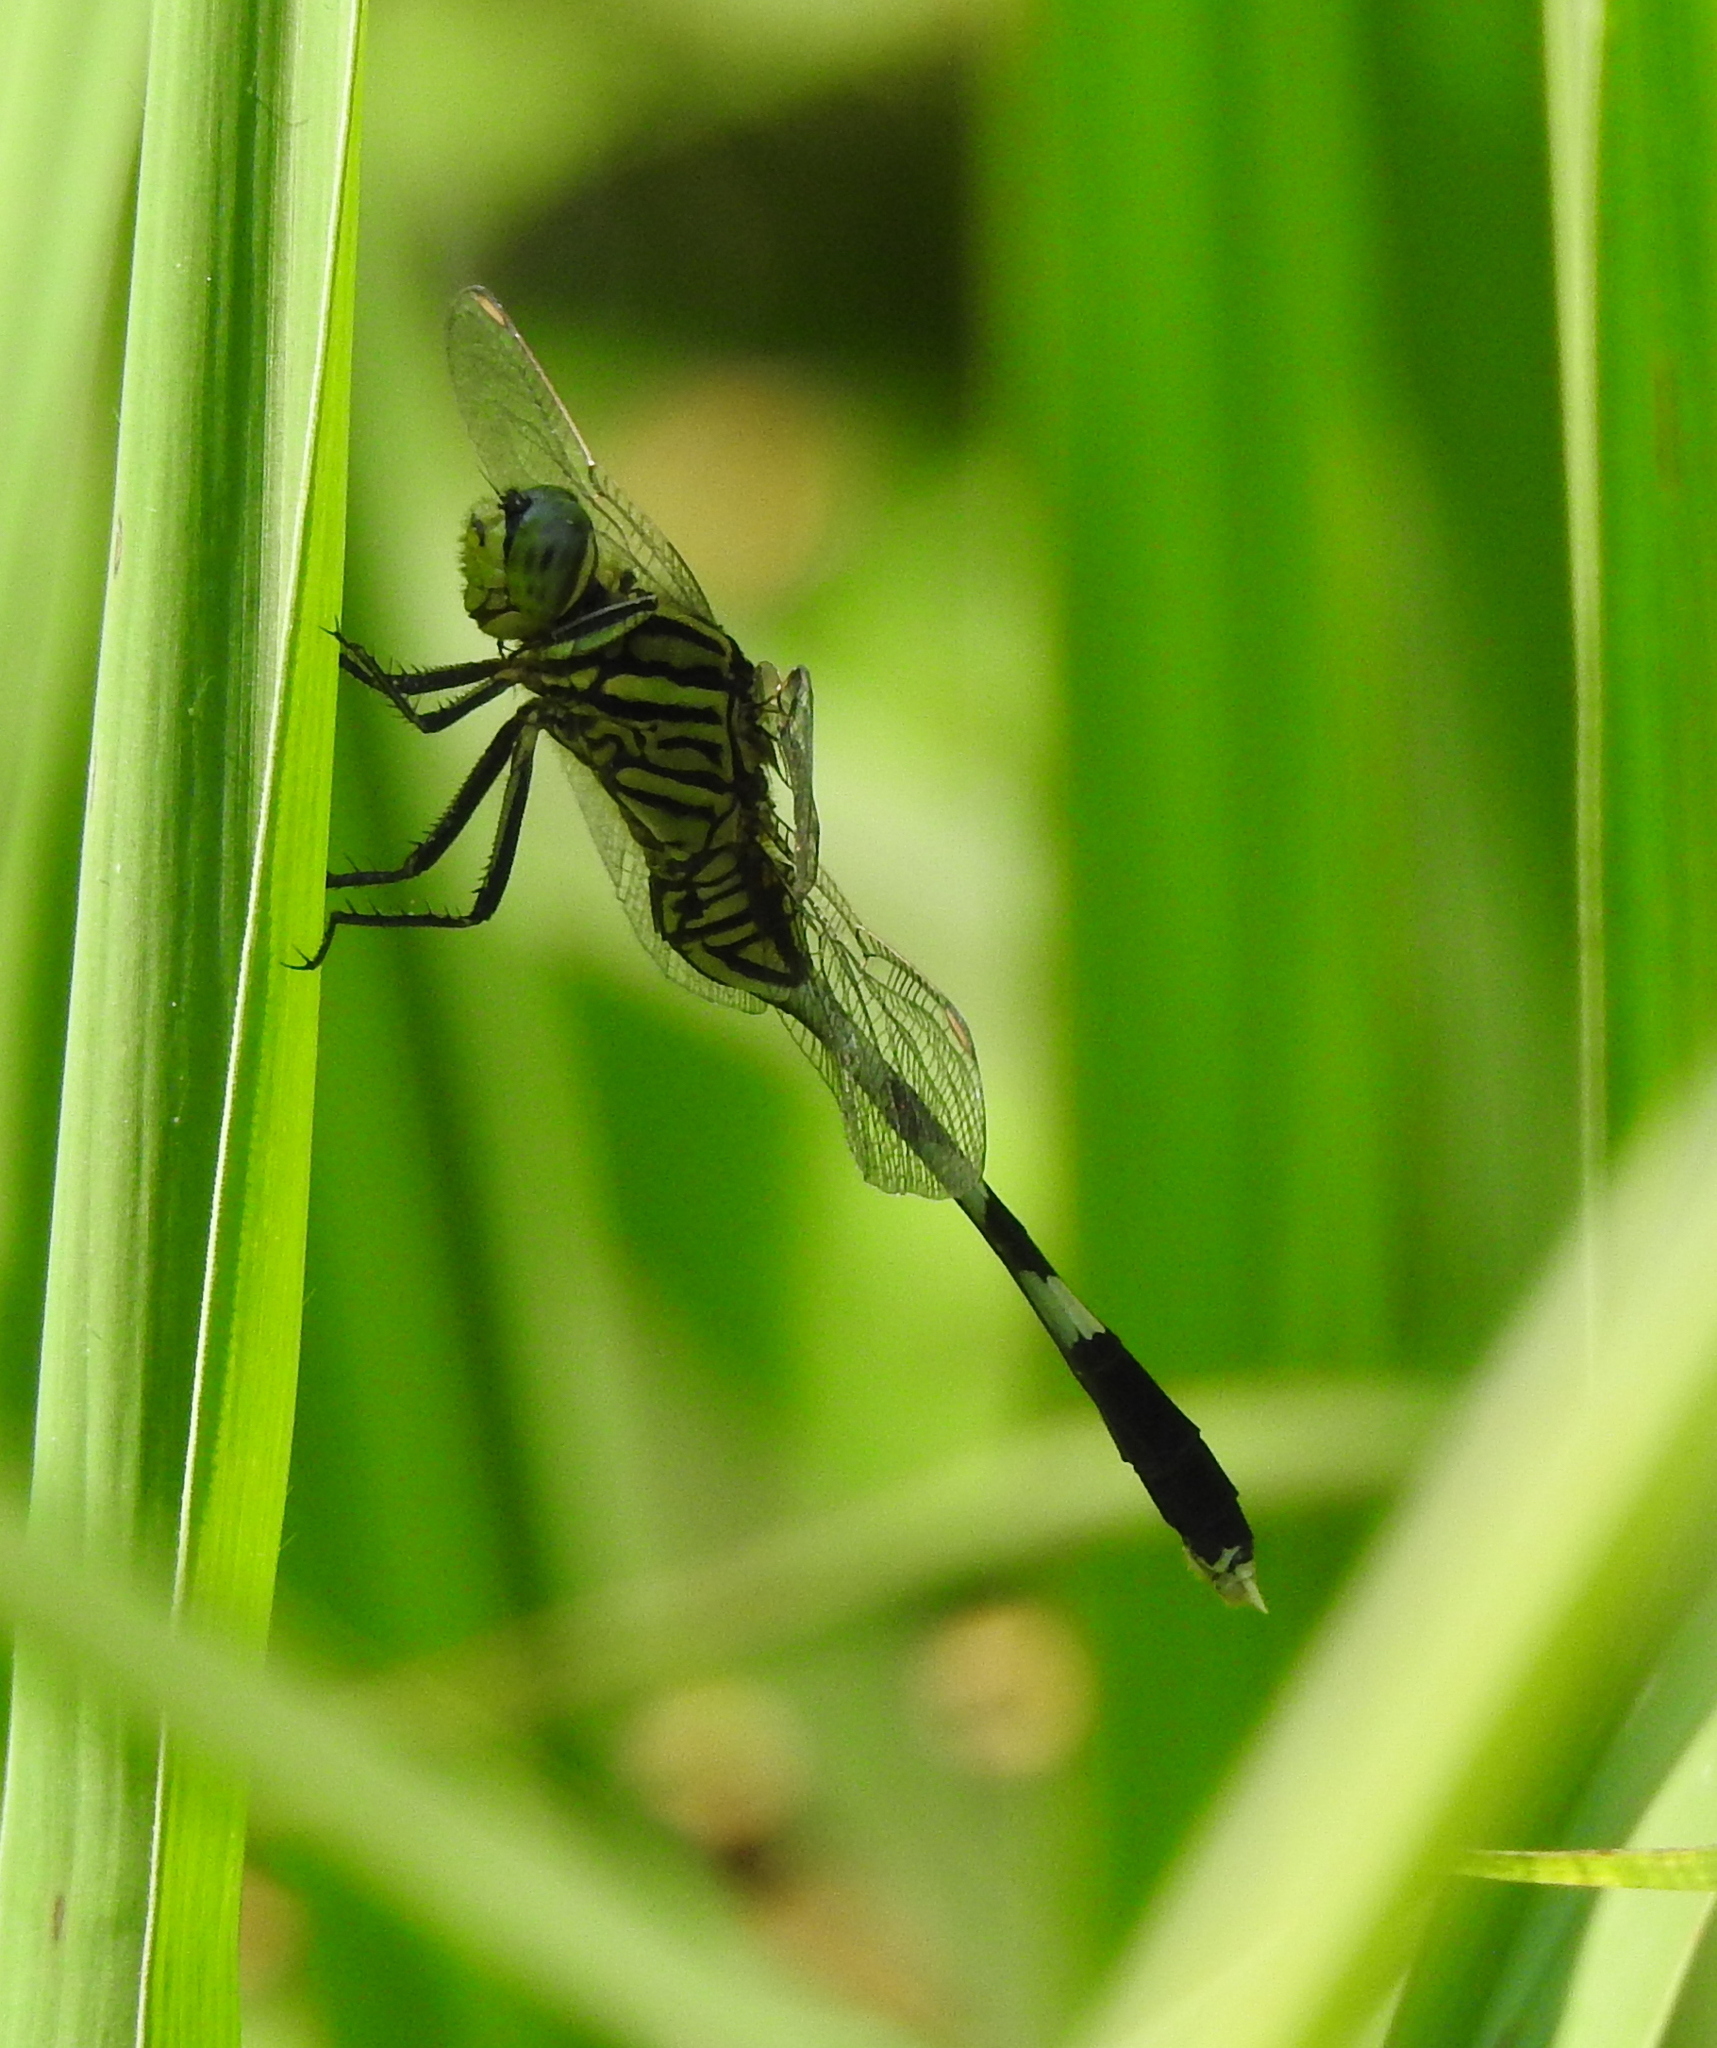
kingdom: Animalia
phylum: Arthropoda
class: Insecta
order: Odonata
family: Libellulidae
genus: Orthetrum
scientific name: Orthetrum sabina
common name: Slender skimmer
